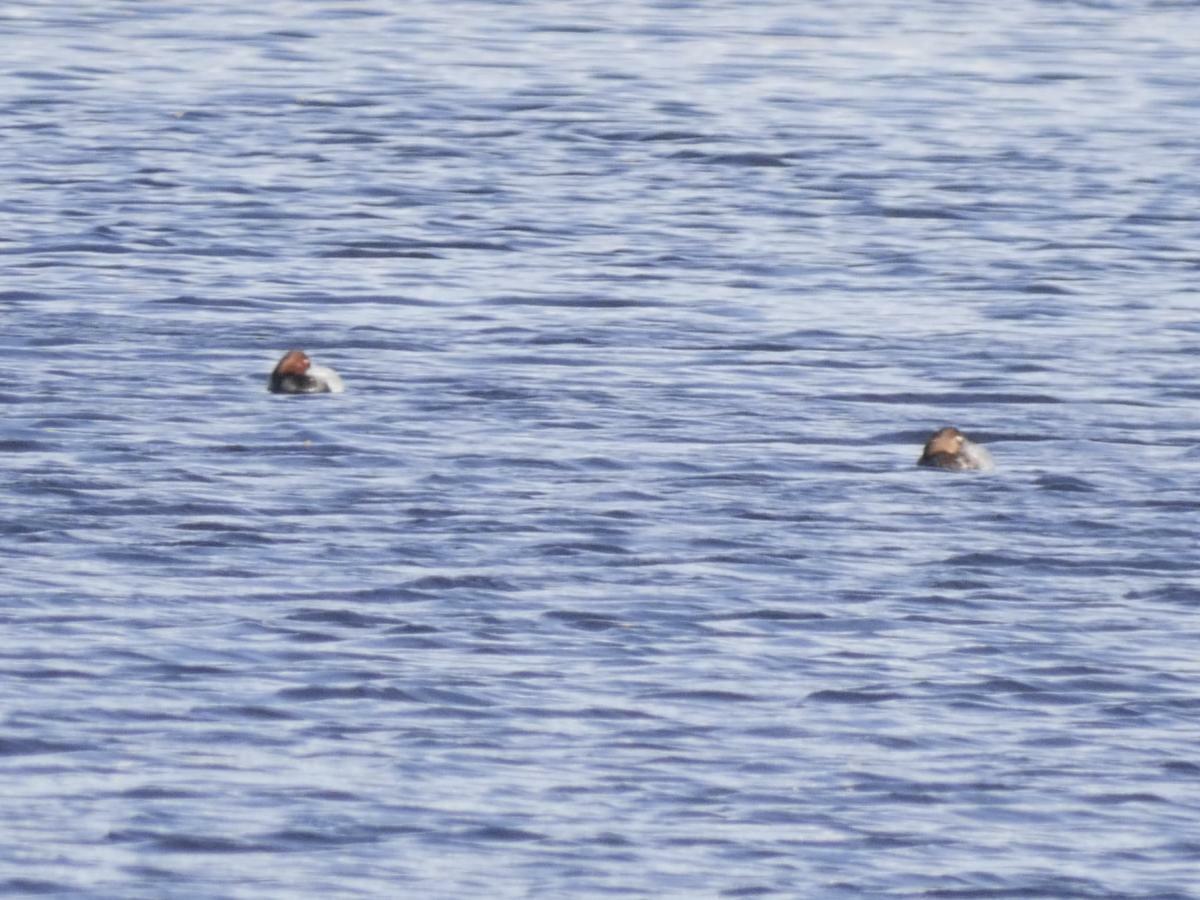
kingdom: Animalia
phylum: Chordata
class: Aves
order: Anseriformes
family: Anatidae
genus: Aythya
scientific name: Aythya ferina
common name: Common pochard
